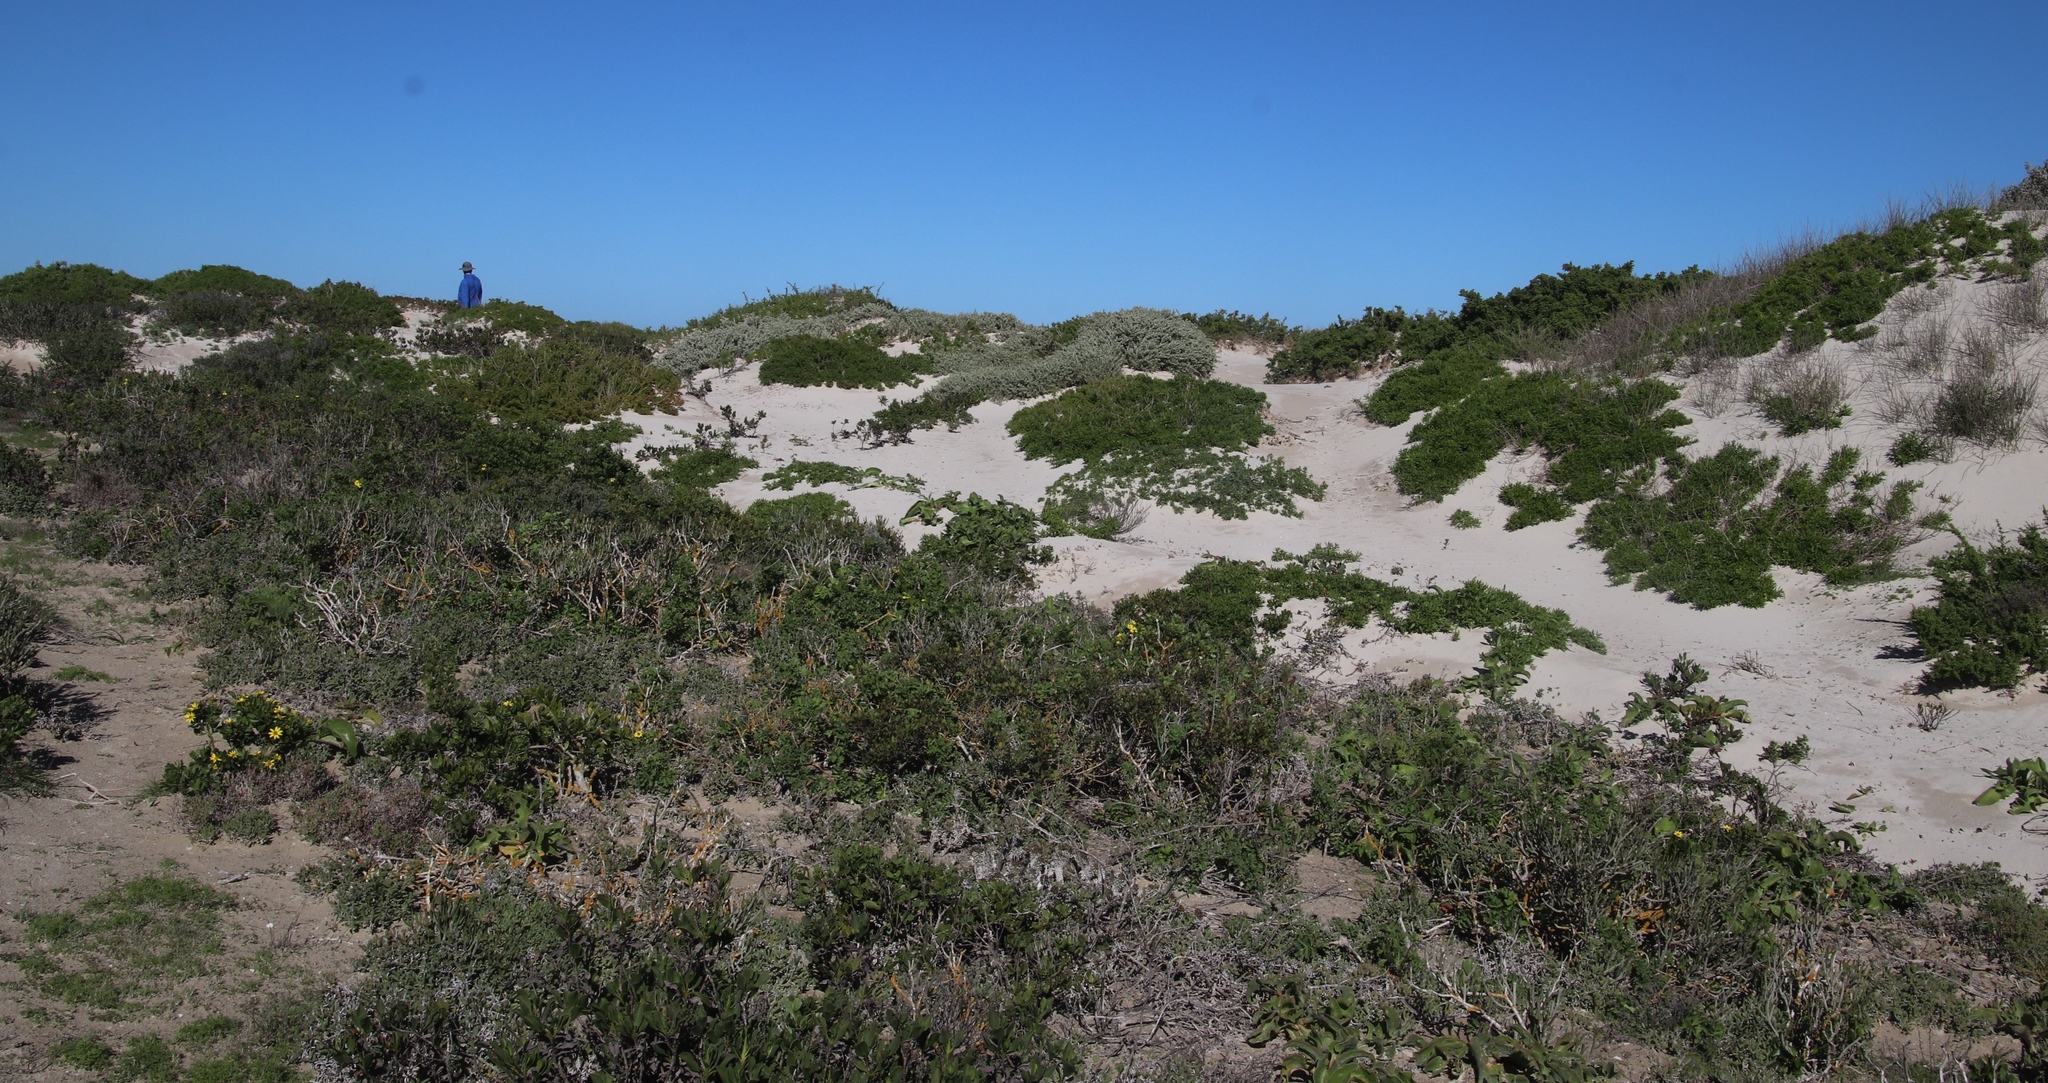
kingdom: Plantae
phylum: Tracheophyta
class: Magnoliopsida
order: Caryophyllales
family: Plumbaginaceae
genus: Limonium
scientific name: Limonium peregrinum
